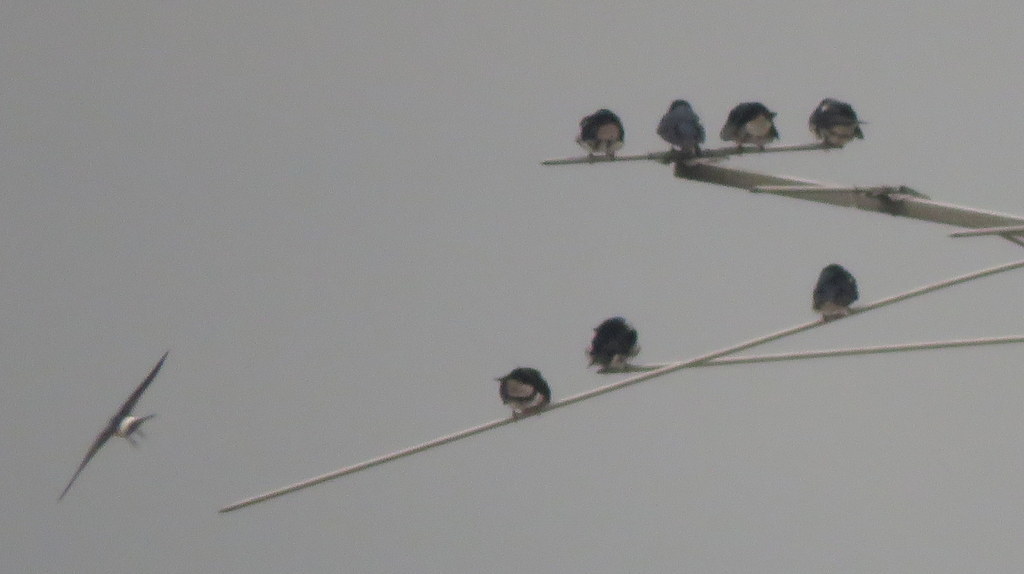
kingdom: Animalia
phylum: Chordata
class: Aves
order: Passeriformes
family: Hirundinidae
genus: Tachycineta
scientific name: Tachycineta leucorrhoa
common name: White-rumped swallow
